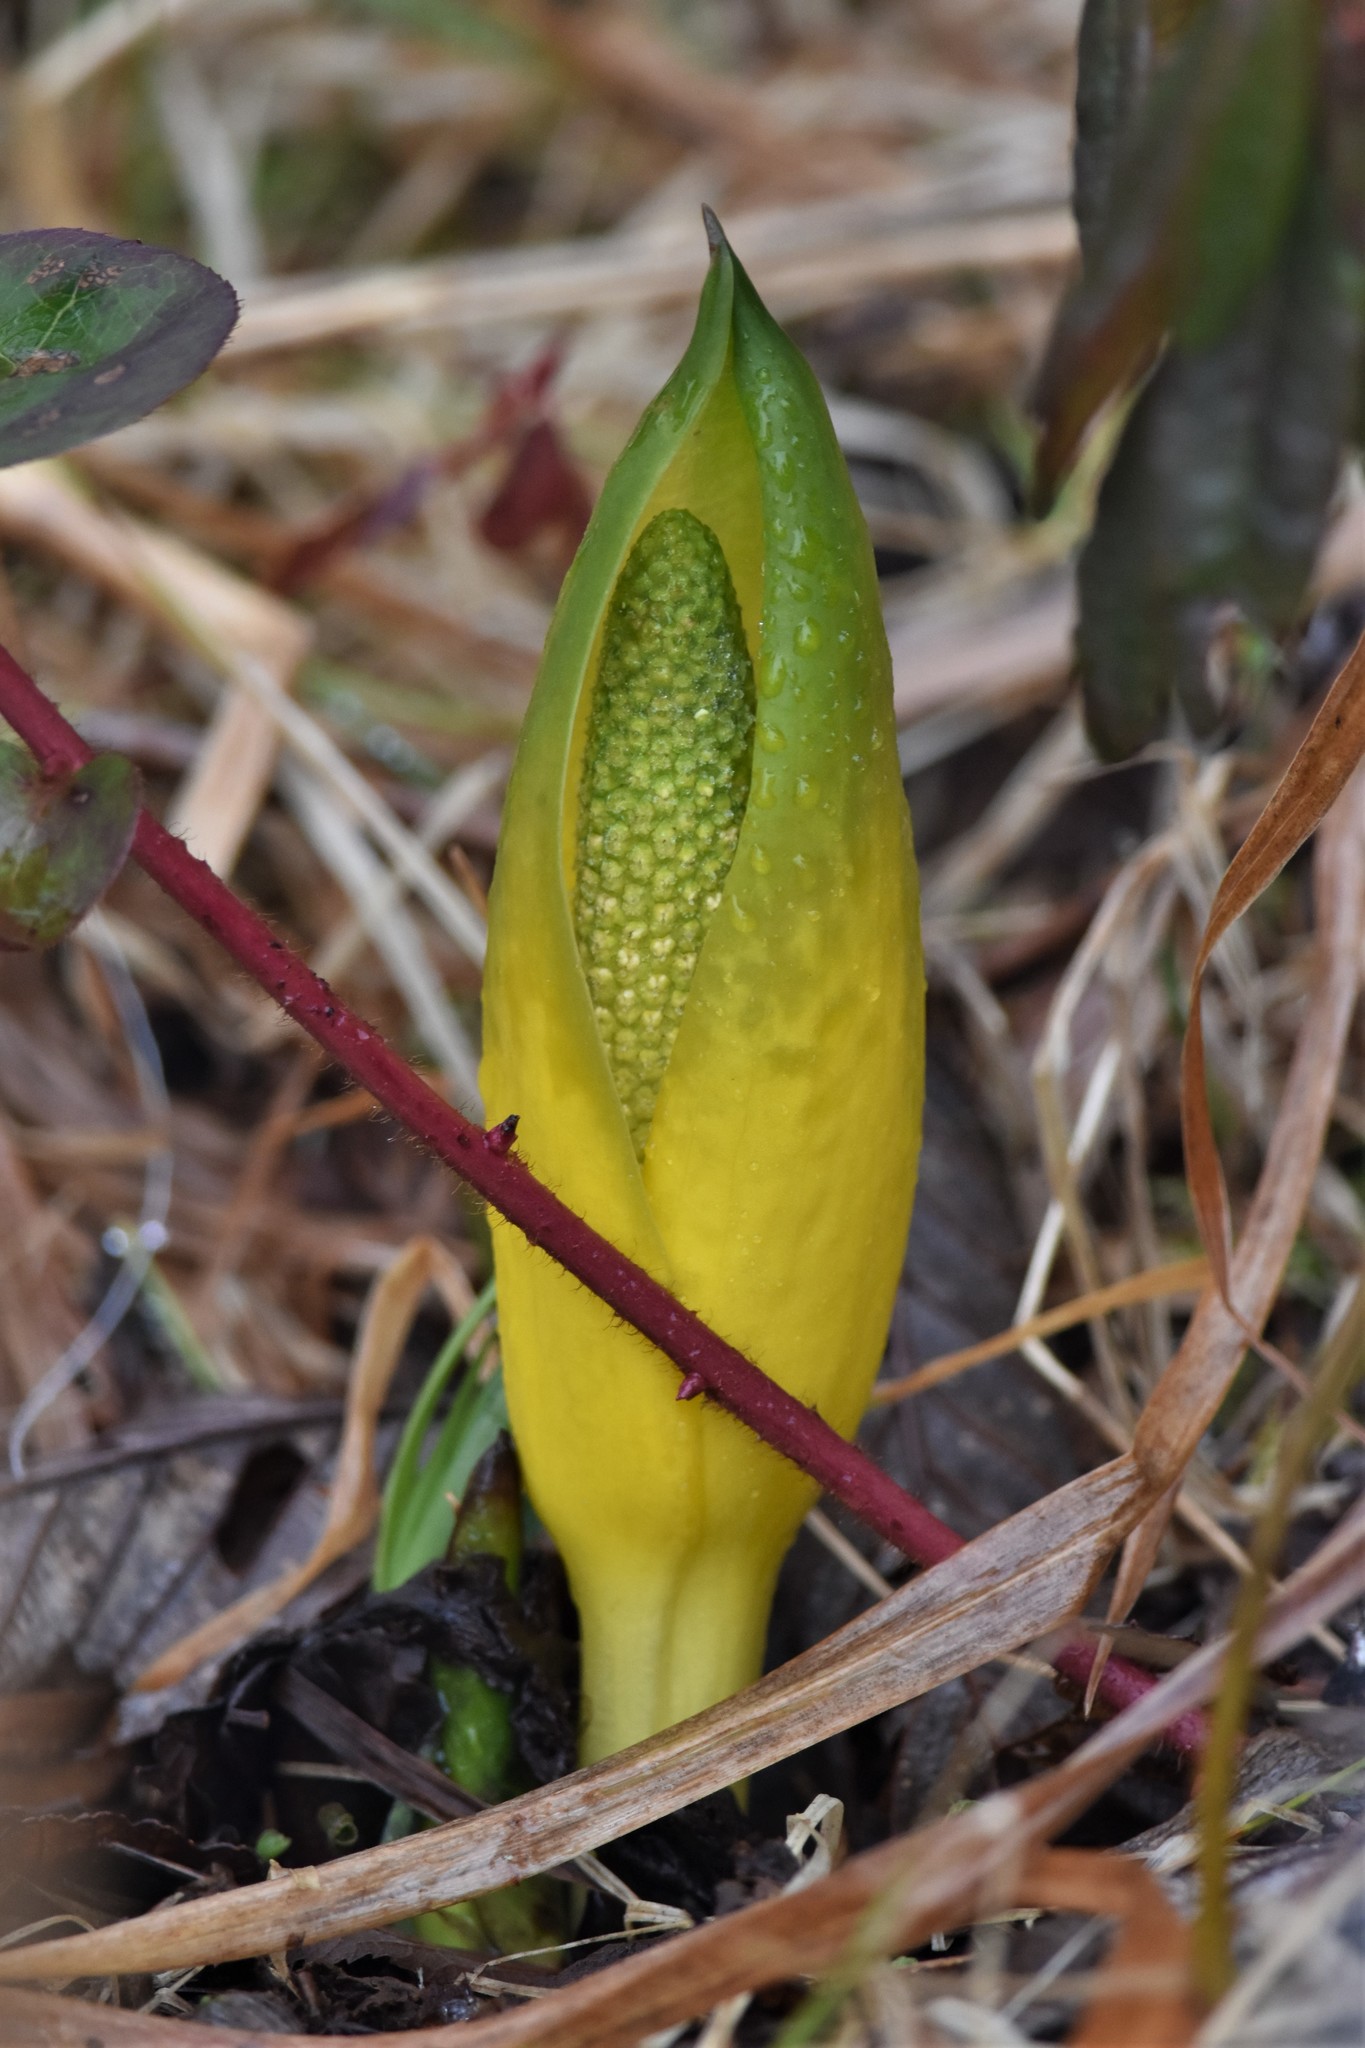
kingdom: Plantae
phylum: Tracheophyta
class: Liliopsida
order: Alismatales
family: Araceae
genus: Lysichiton
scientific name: Lysichiton americanus
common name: American skunk cabbage
